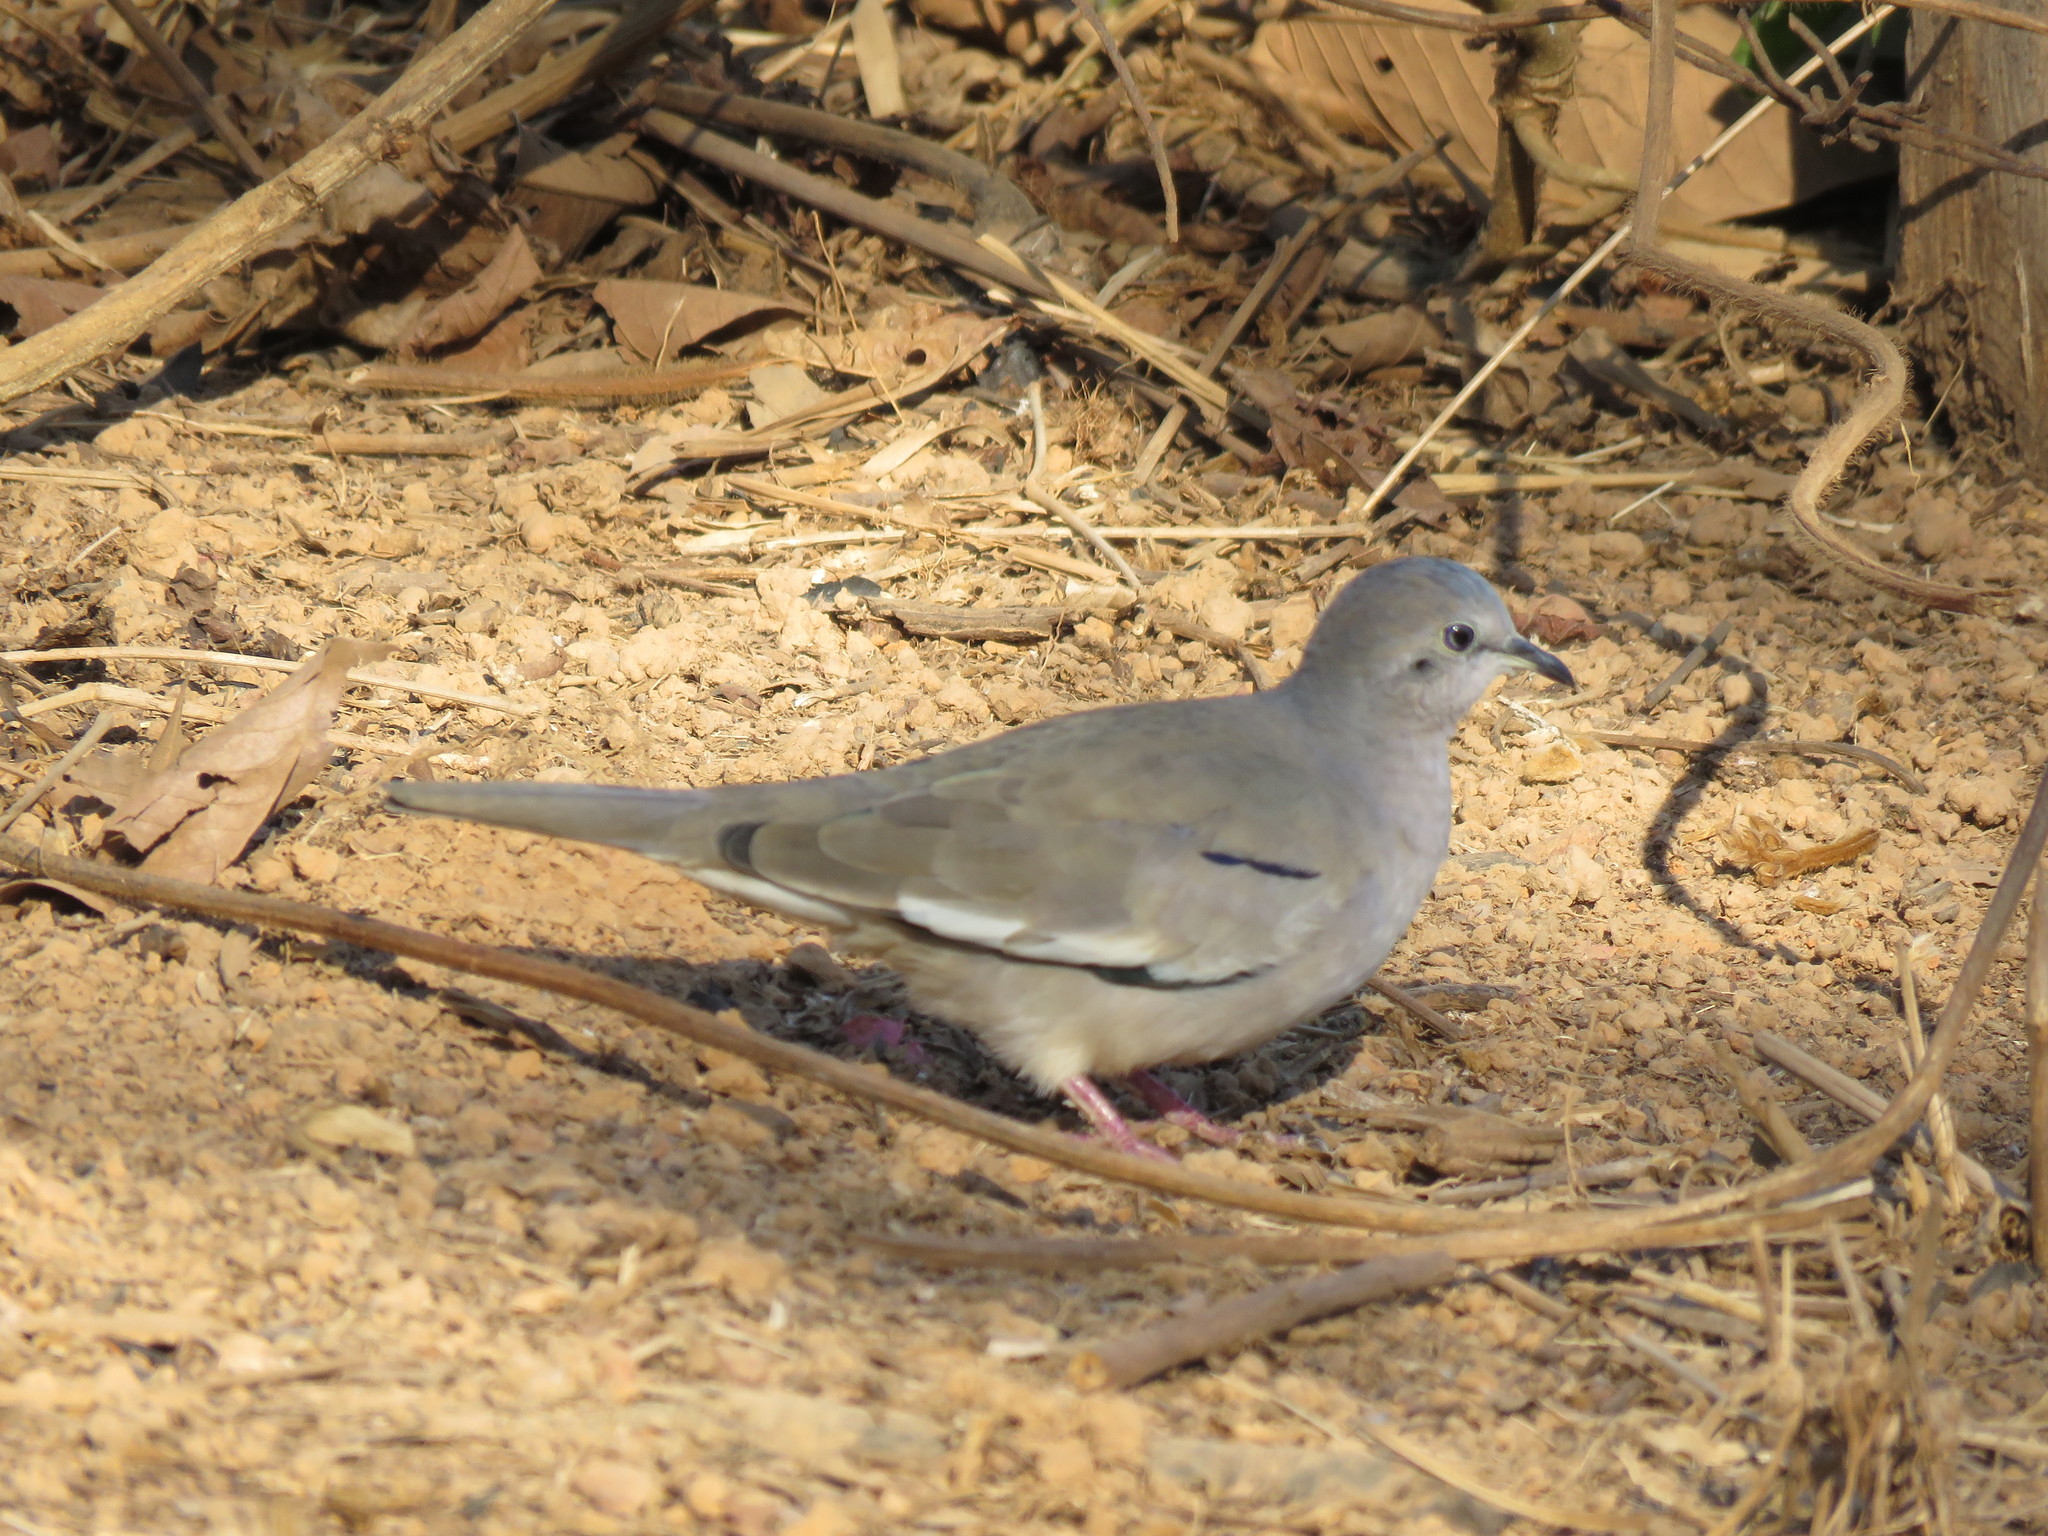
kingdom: Animalia
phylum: Chordata
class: Aves
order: Columbiformes
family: Columbidae
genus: Columbina
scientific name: Columbina picui
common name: Picui ground dove
